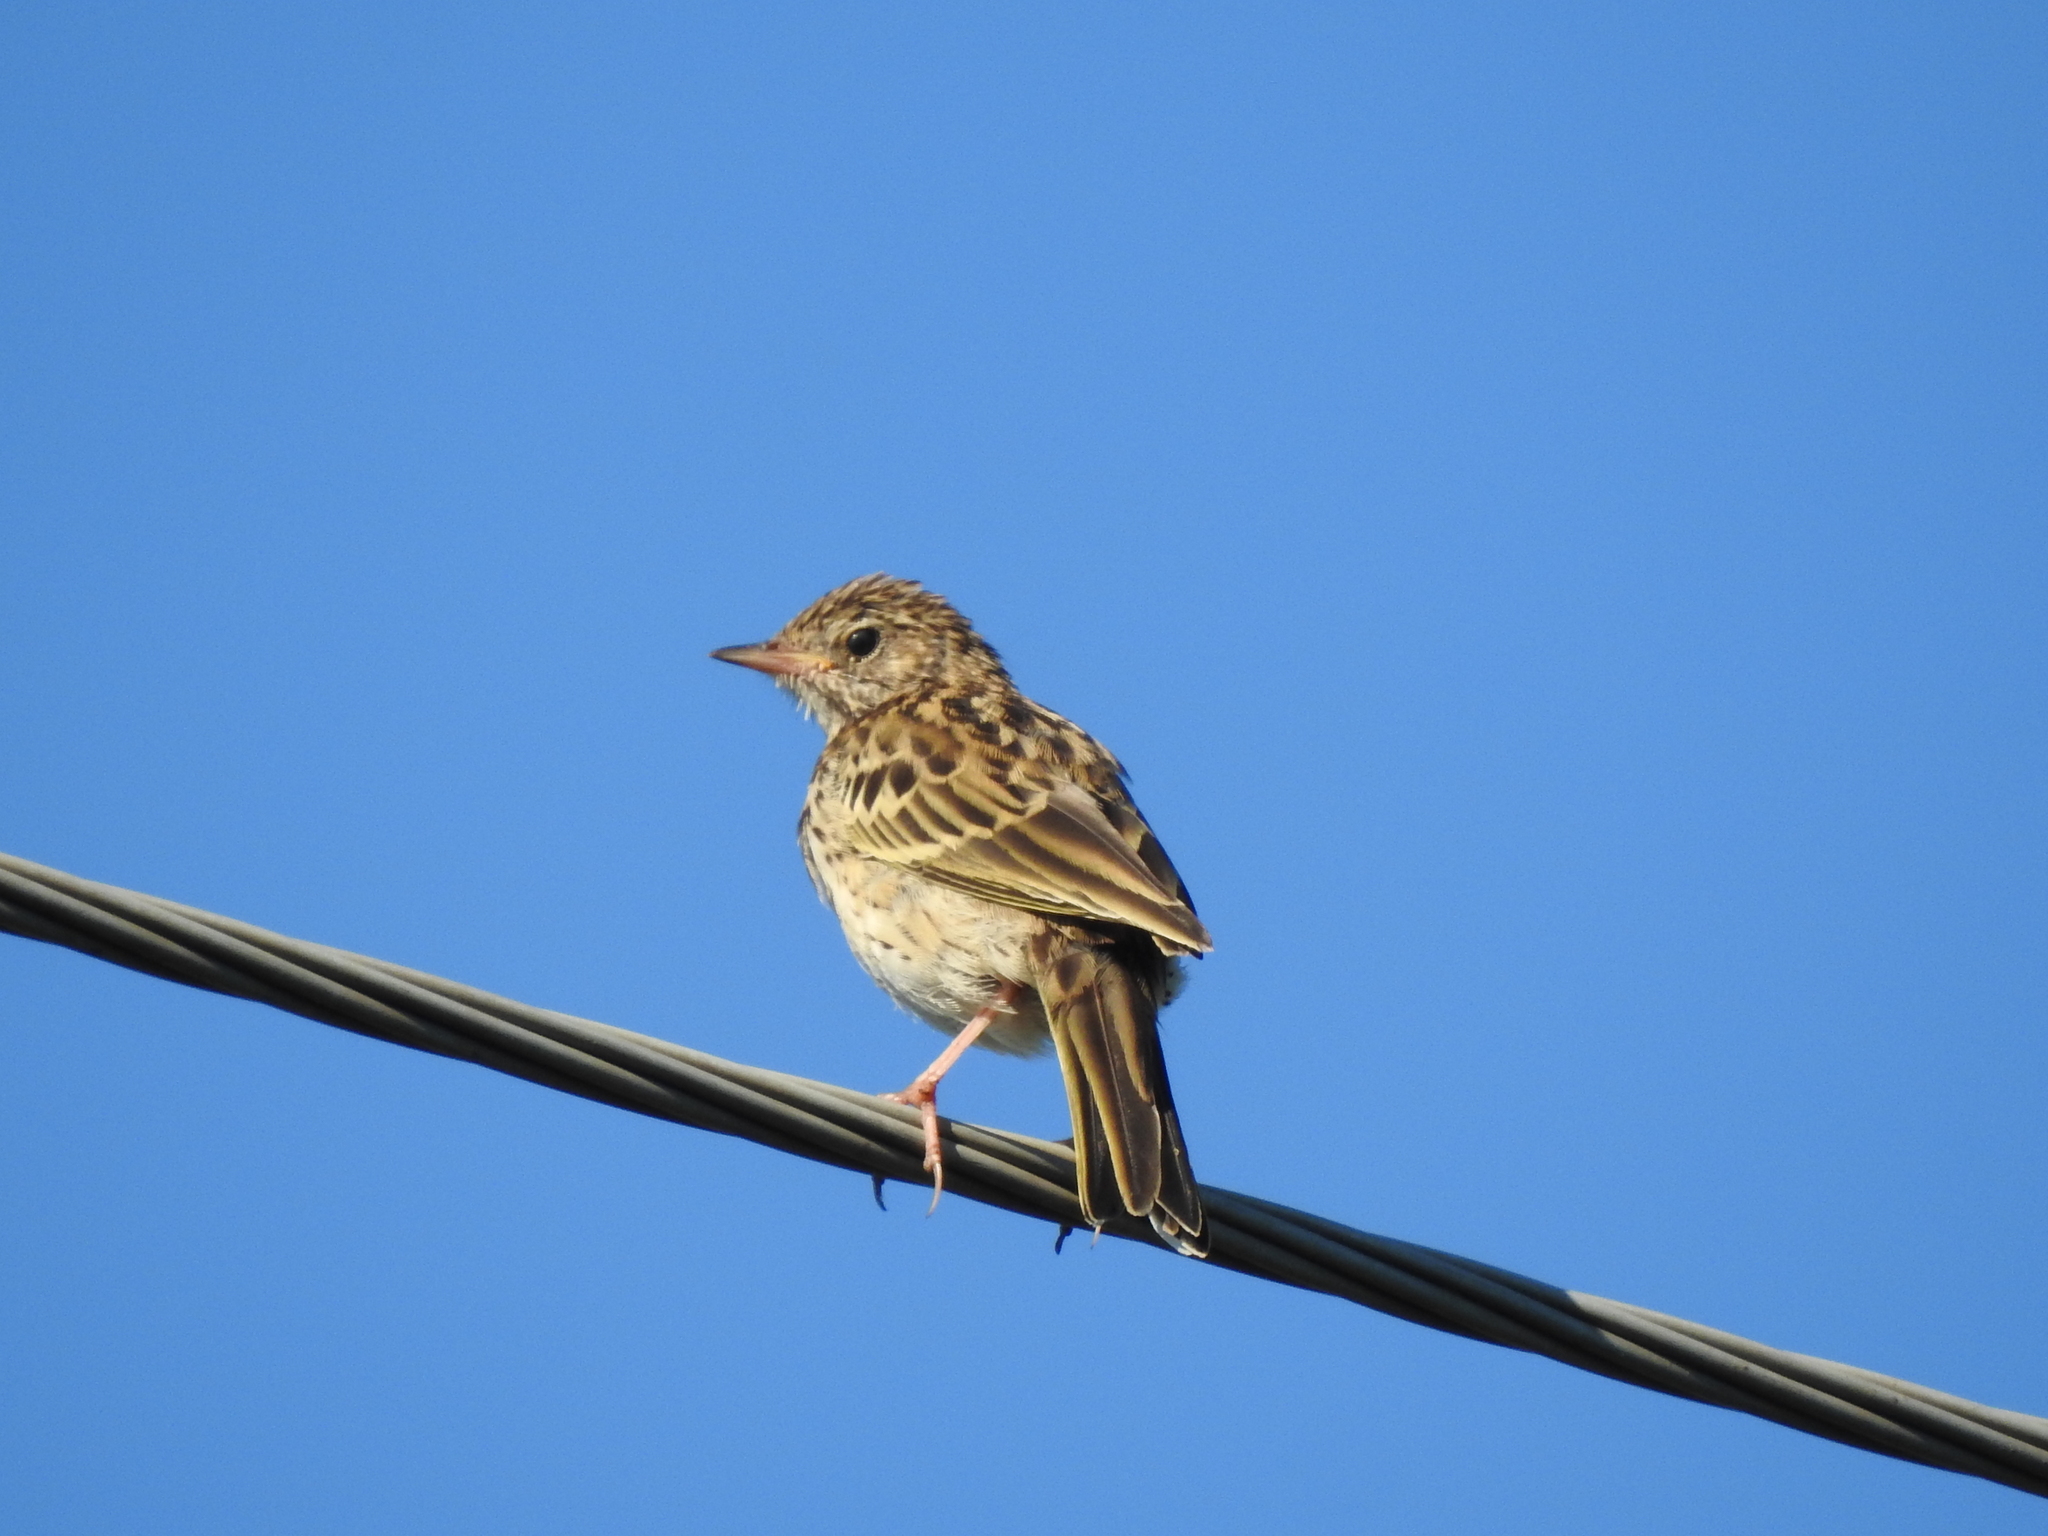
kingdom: Animalia
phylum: Chordata
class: Aves
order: Passeriformes
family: Motacillidae
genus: Anthus
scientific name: Anthus trivialis
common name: Tree pipit
